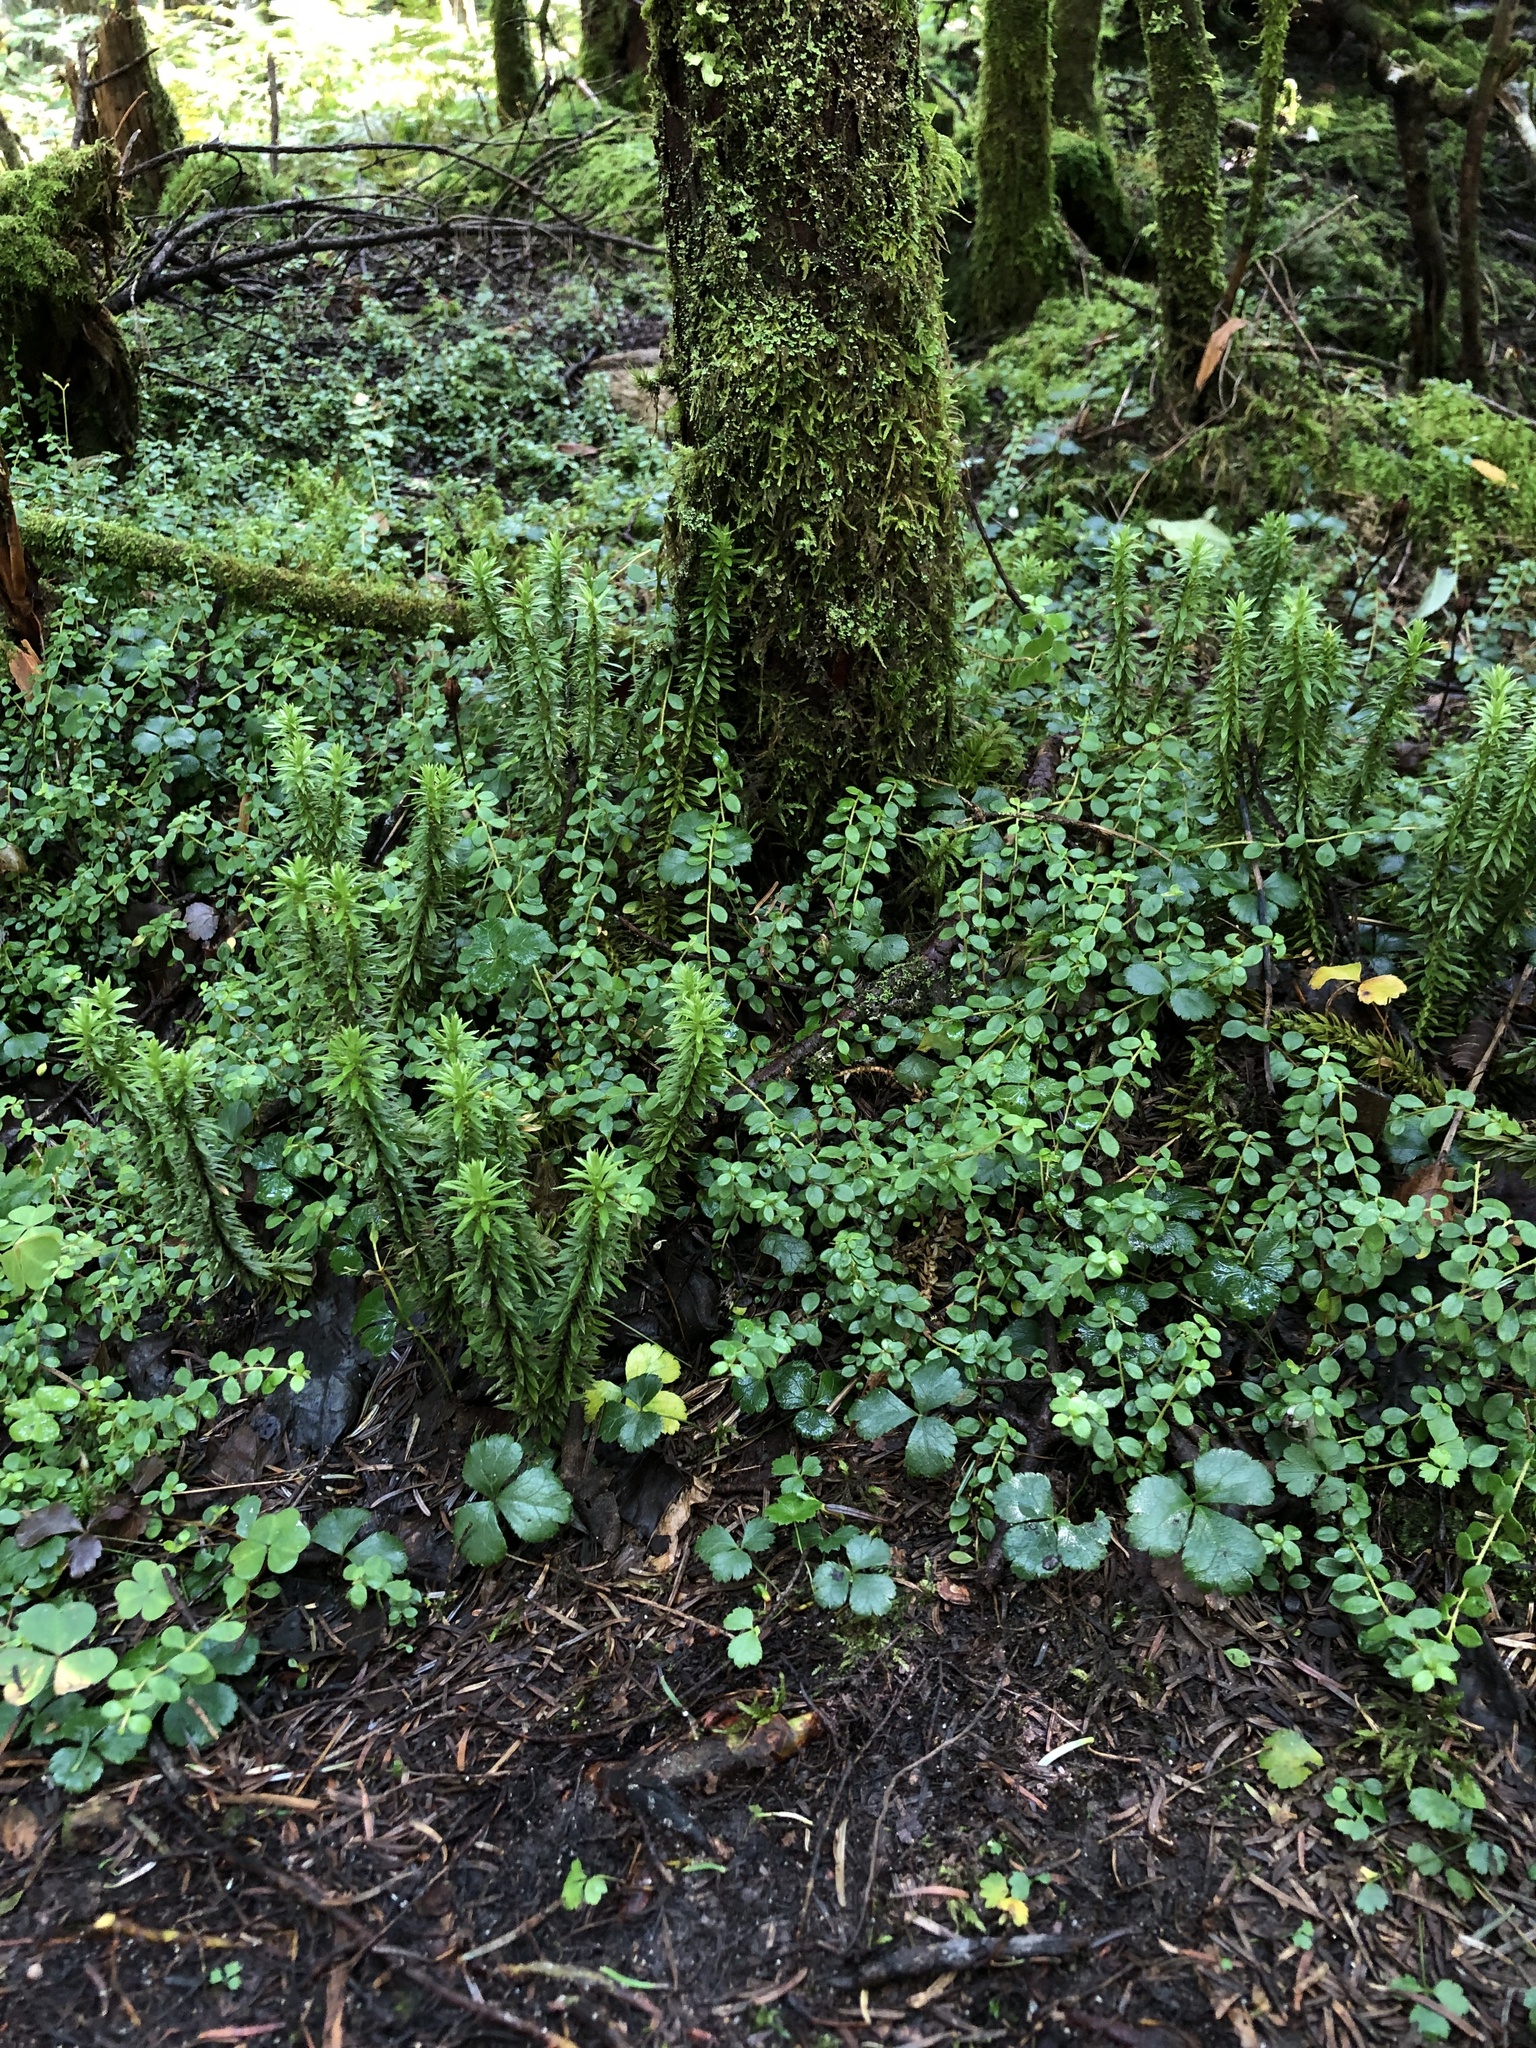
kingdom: Plantae
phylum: Tracheophyta
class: Lycopodiopsida
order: Lycopodiales
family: Lycopodiaceae
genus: Huperzia
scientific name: Huperzia lucidula
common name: Shining clubmoss
